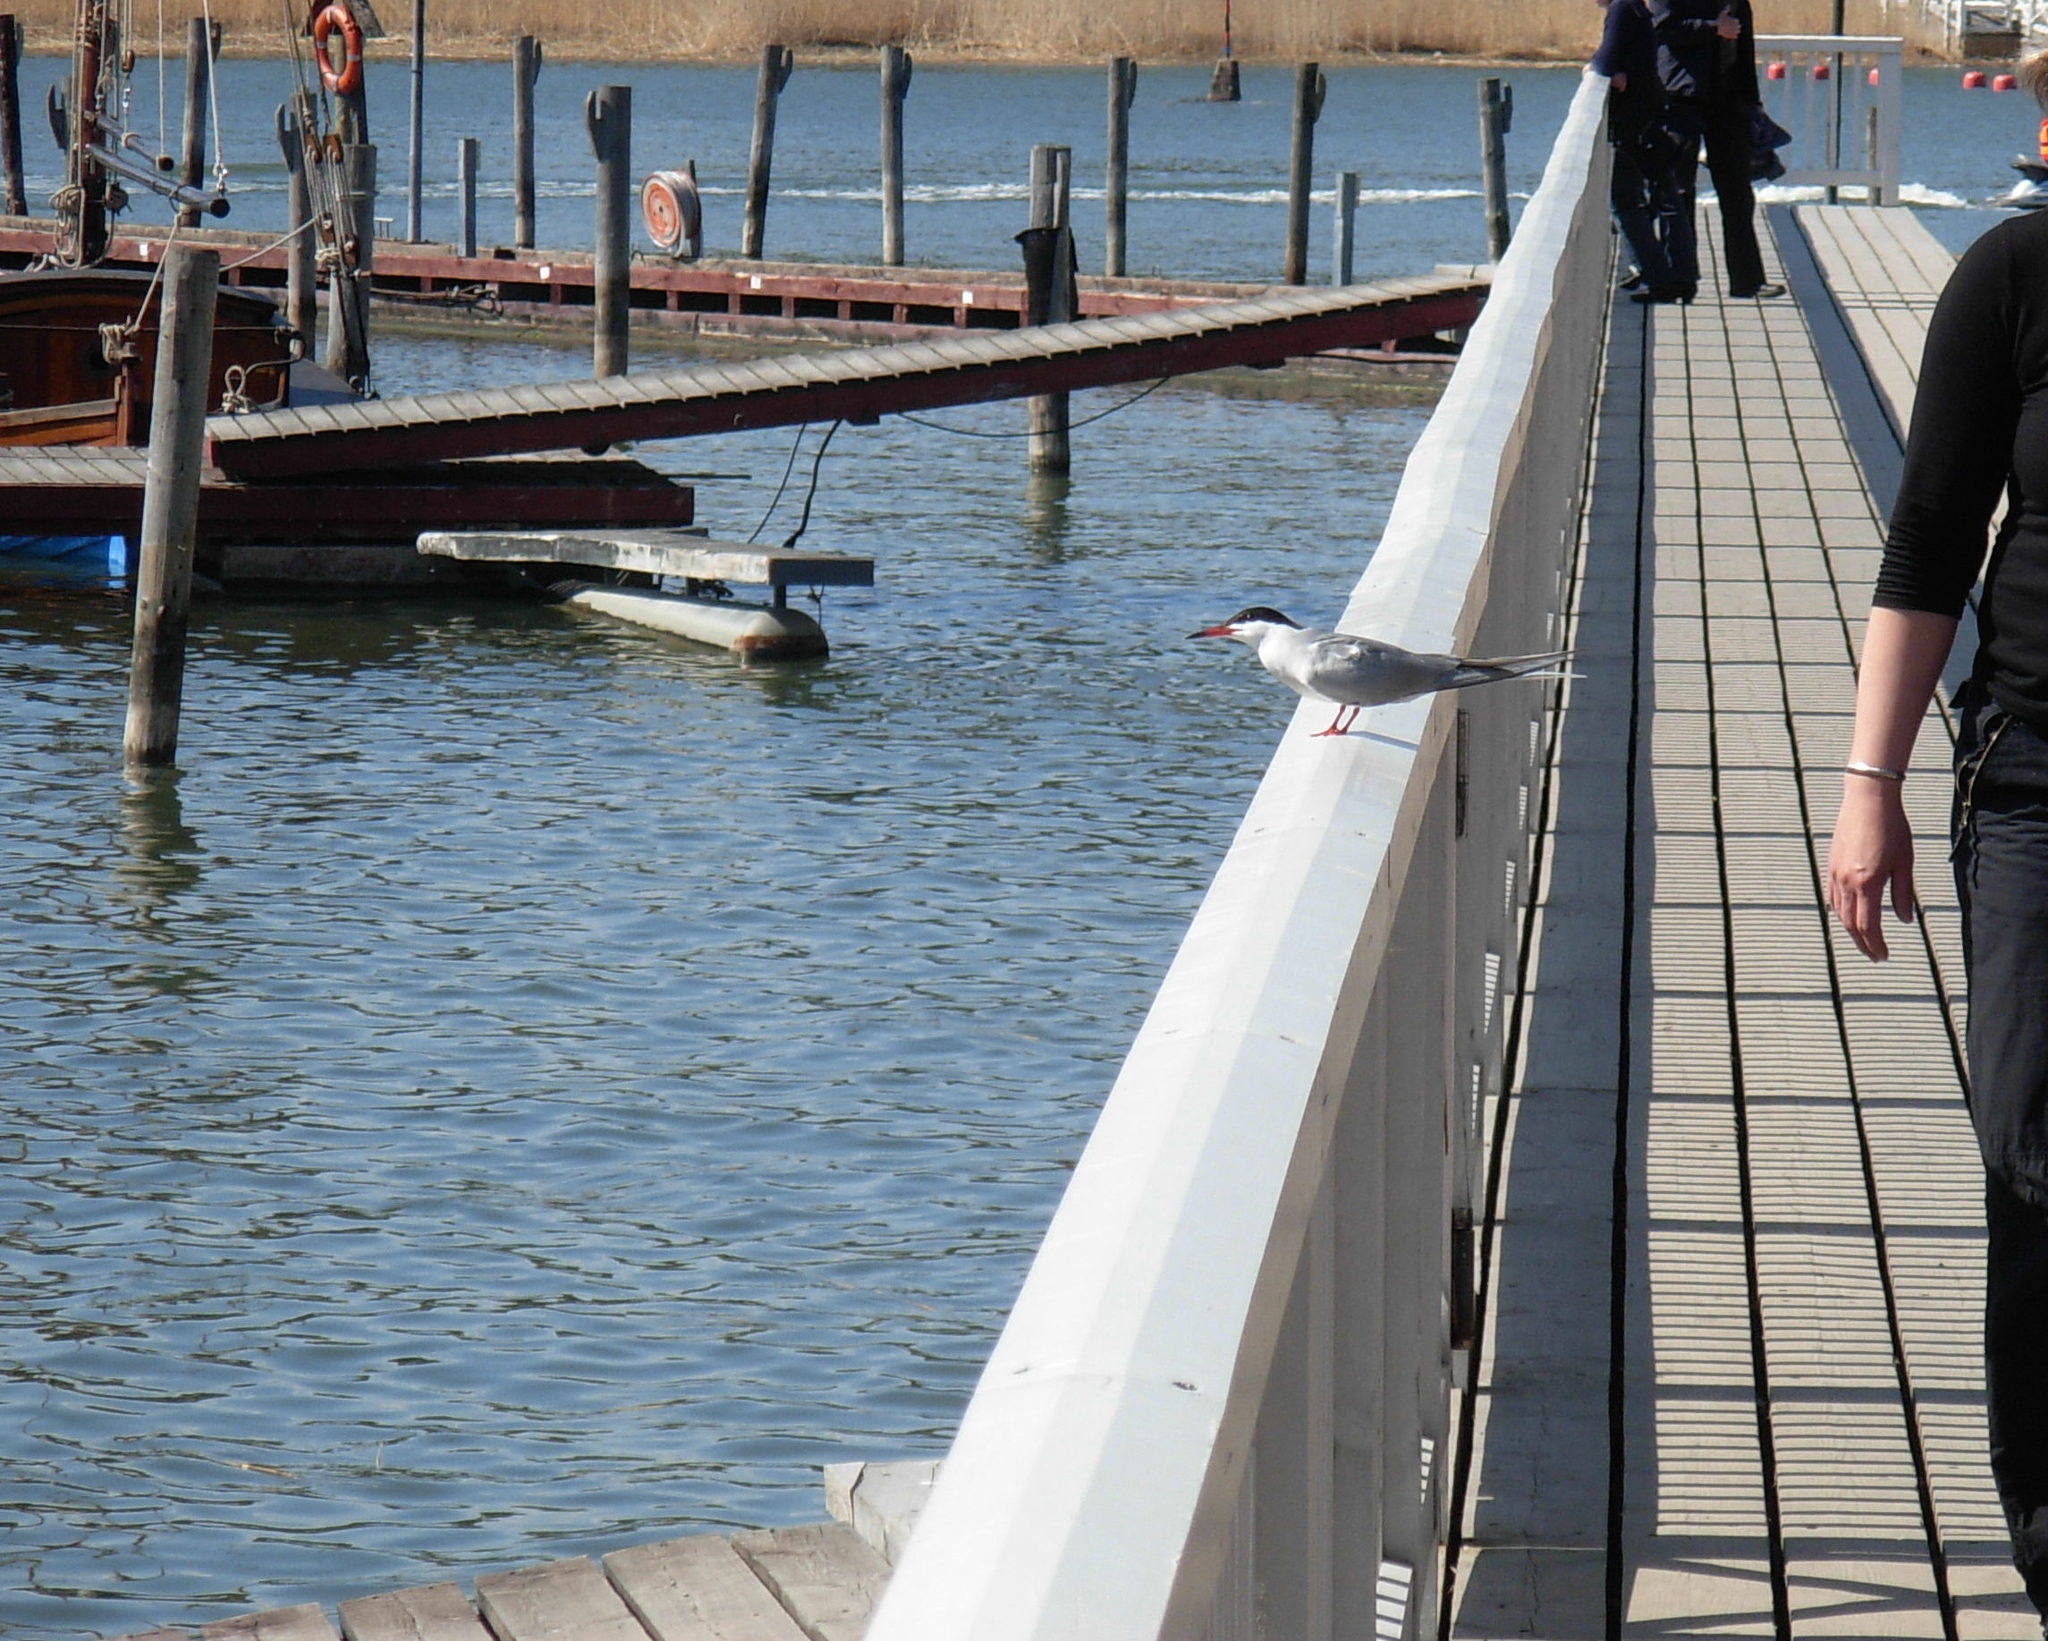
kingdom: Animalia
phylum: Chordata
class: Aves
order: Charadriiformes
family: Laridae
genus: Sterna
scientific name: Sterna hirundo
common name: Common tern
